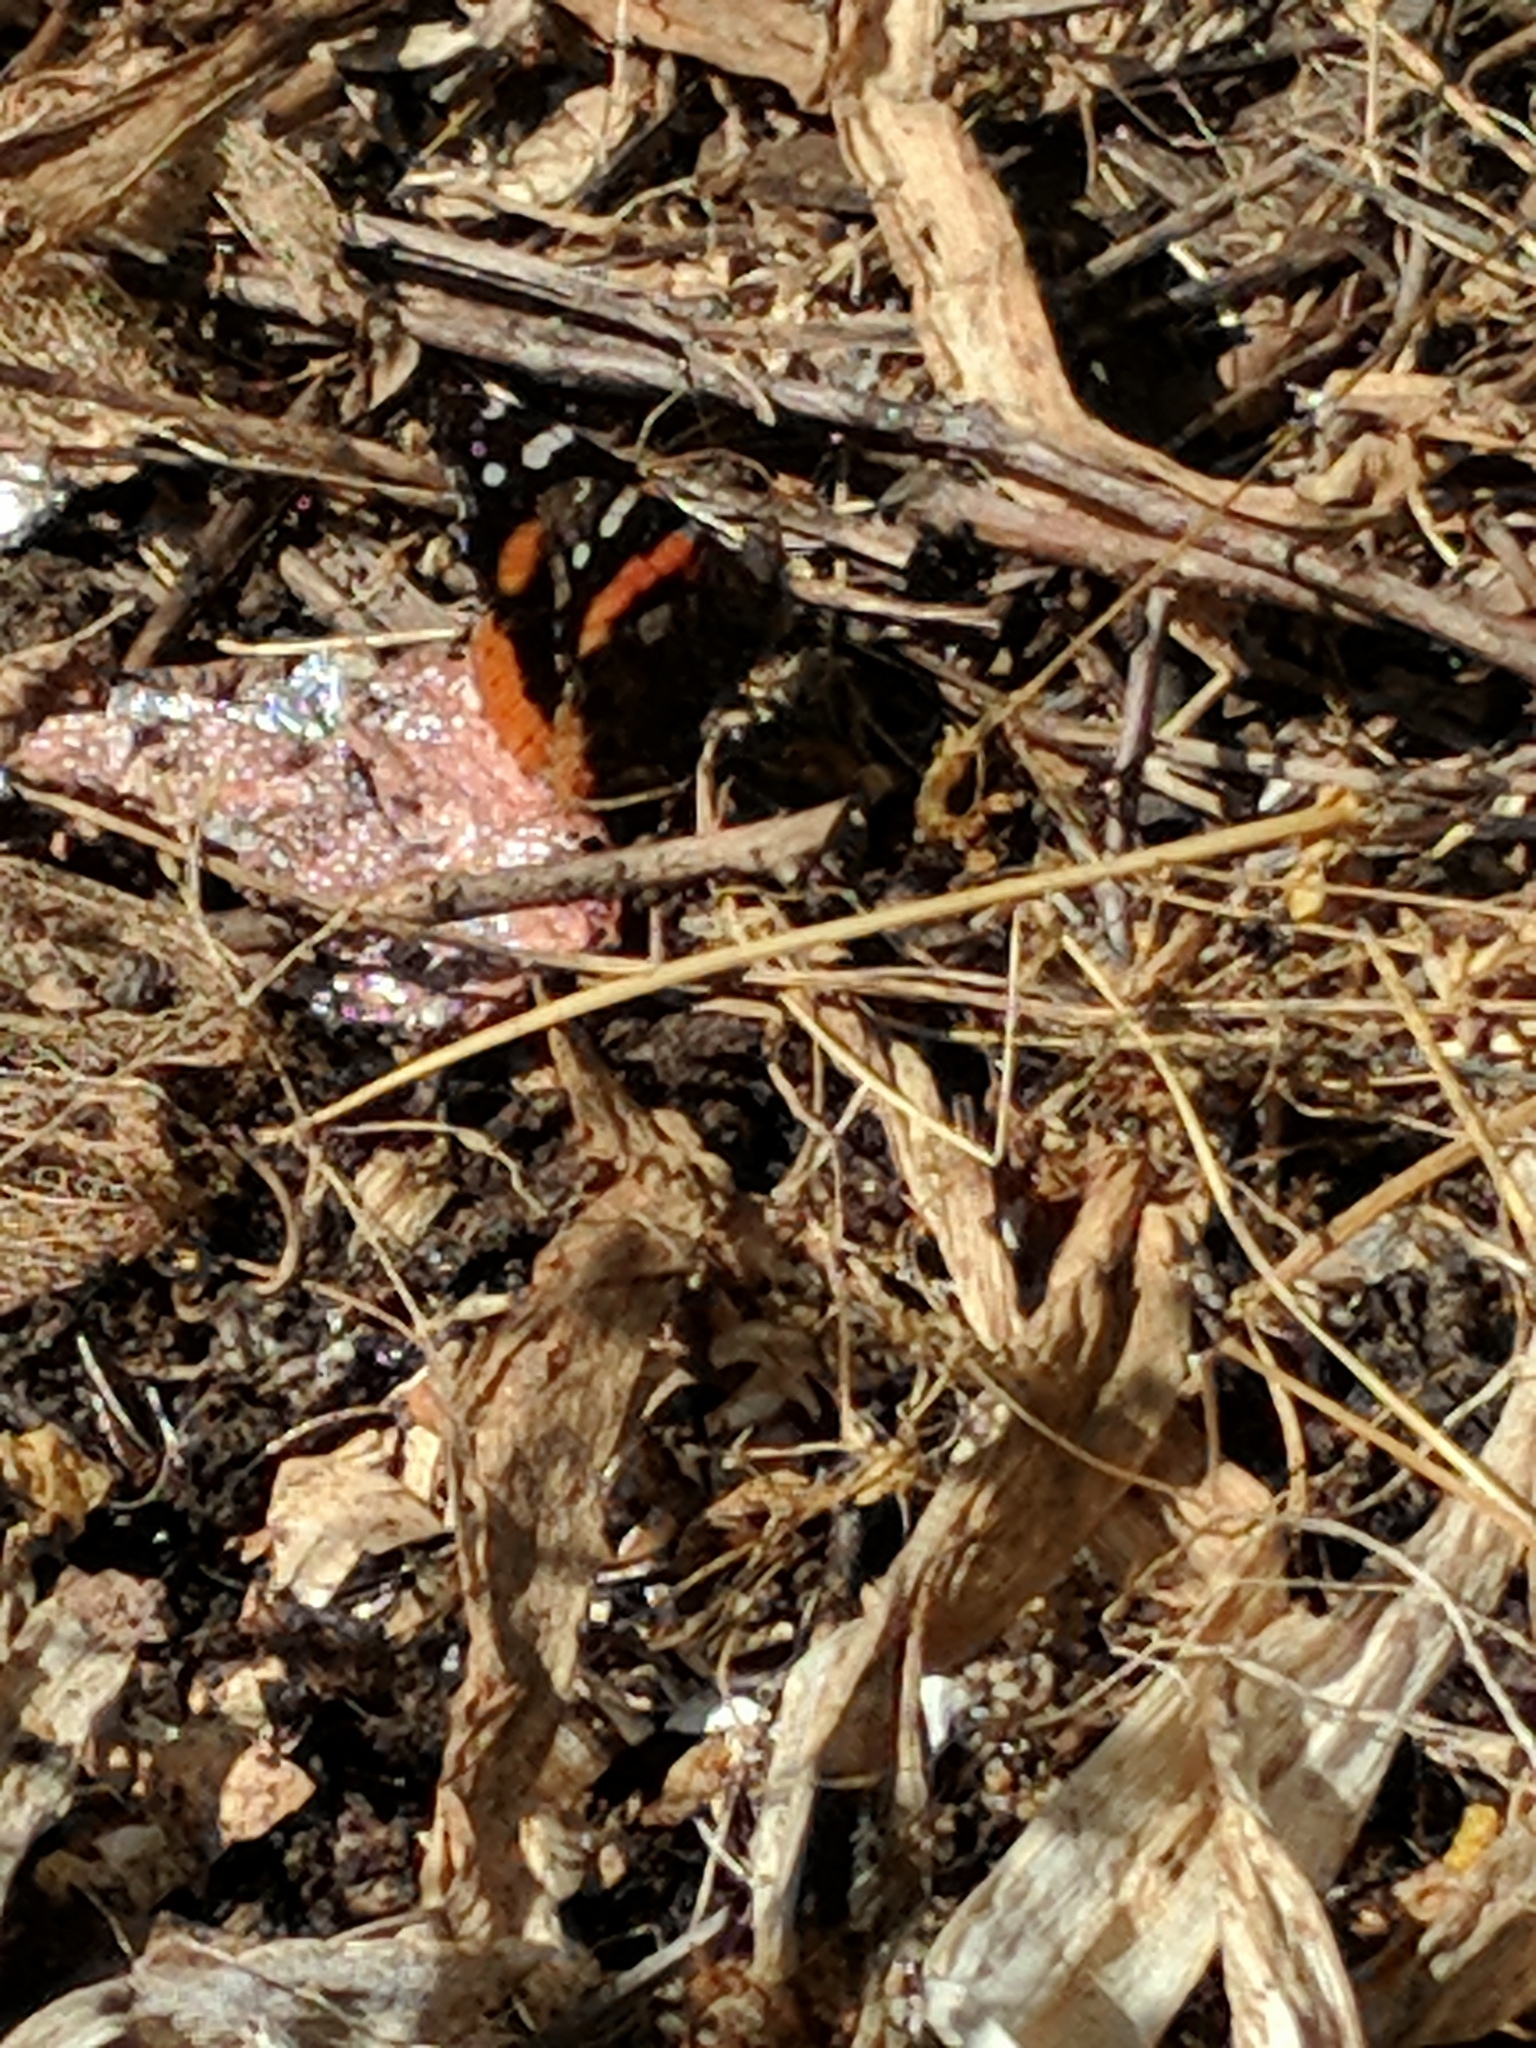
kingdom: Animalia
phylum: Arthropoda
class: Insecta
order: Lepidoptera
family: Nymphalidae
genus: Vanessa
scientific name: Vanessa atalanta
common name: Red admiral
